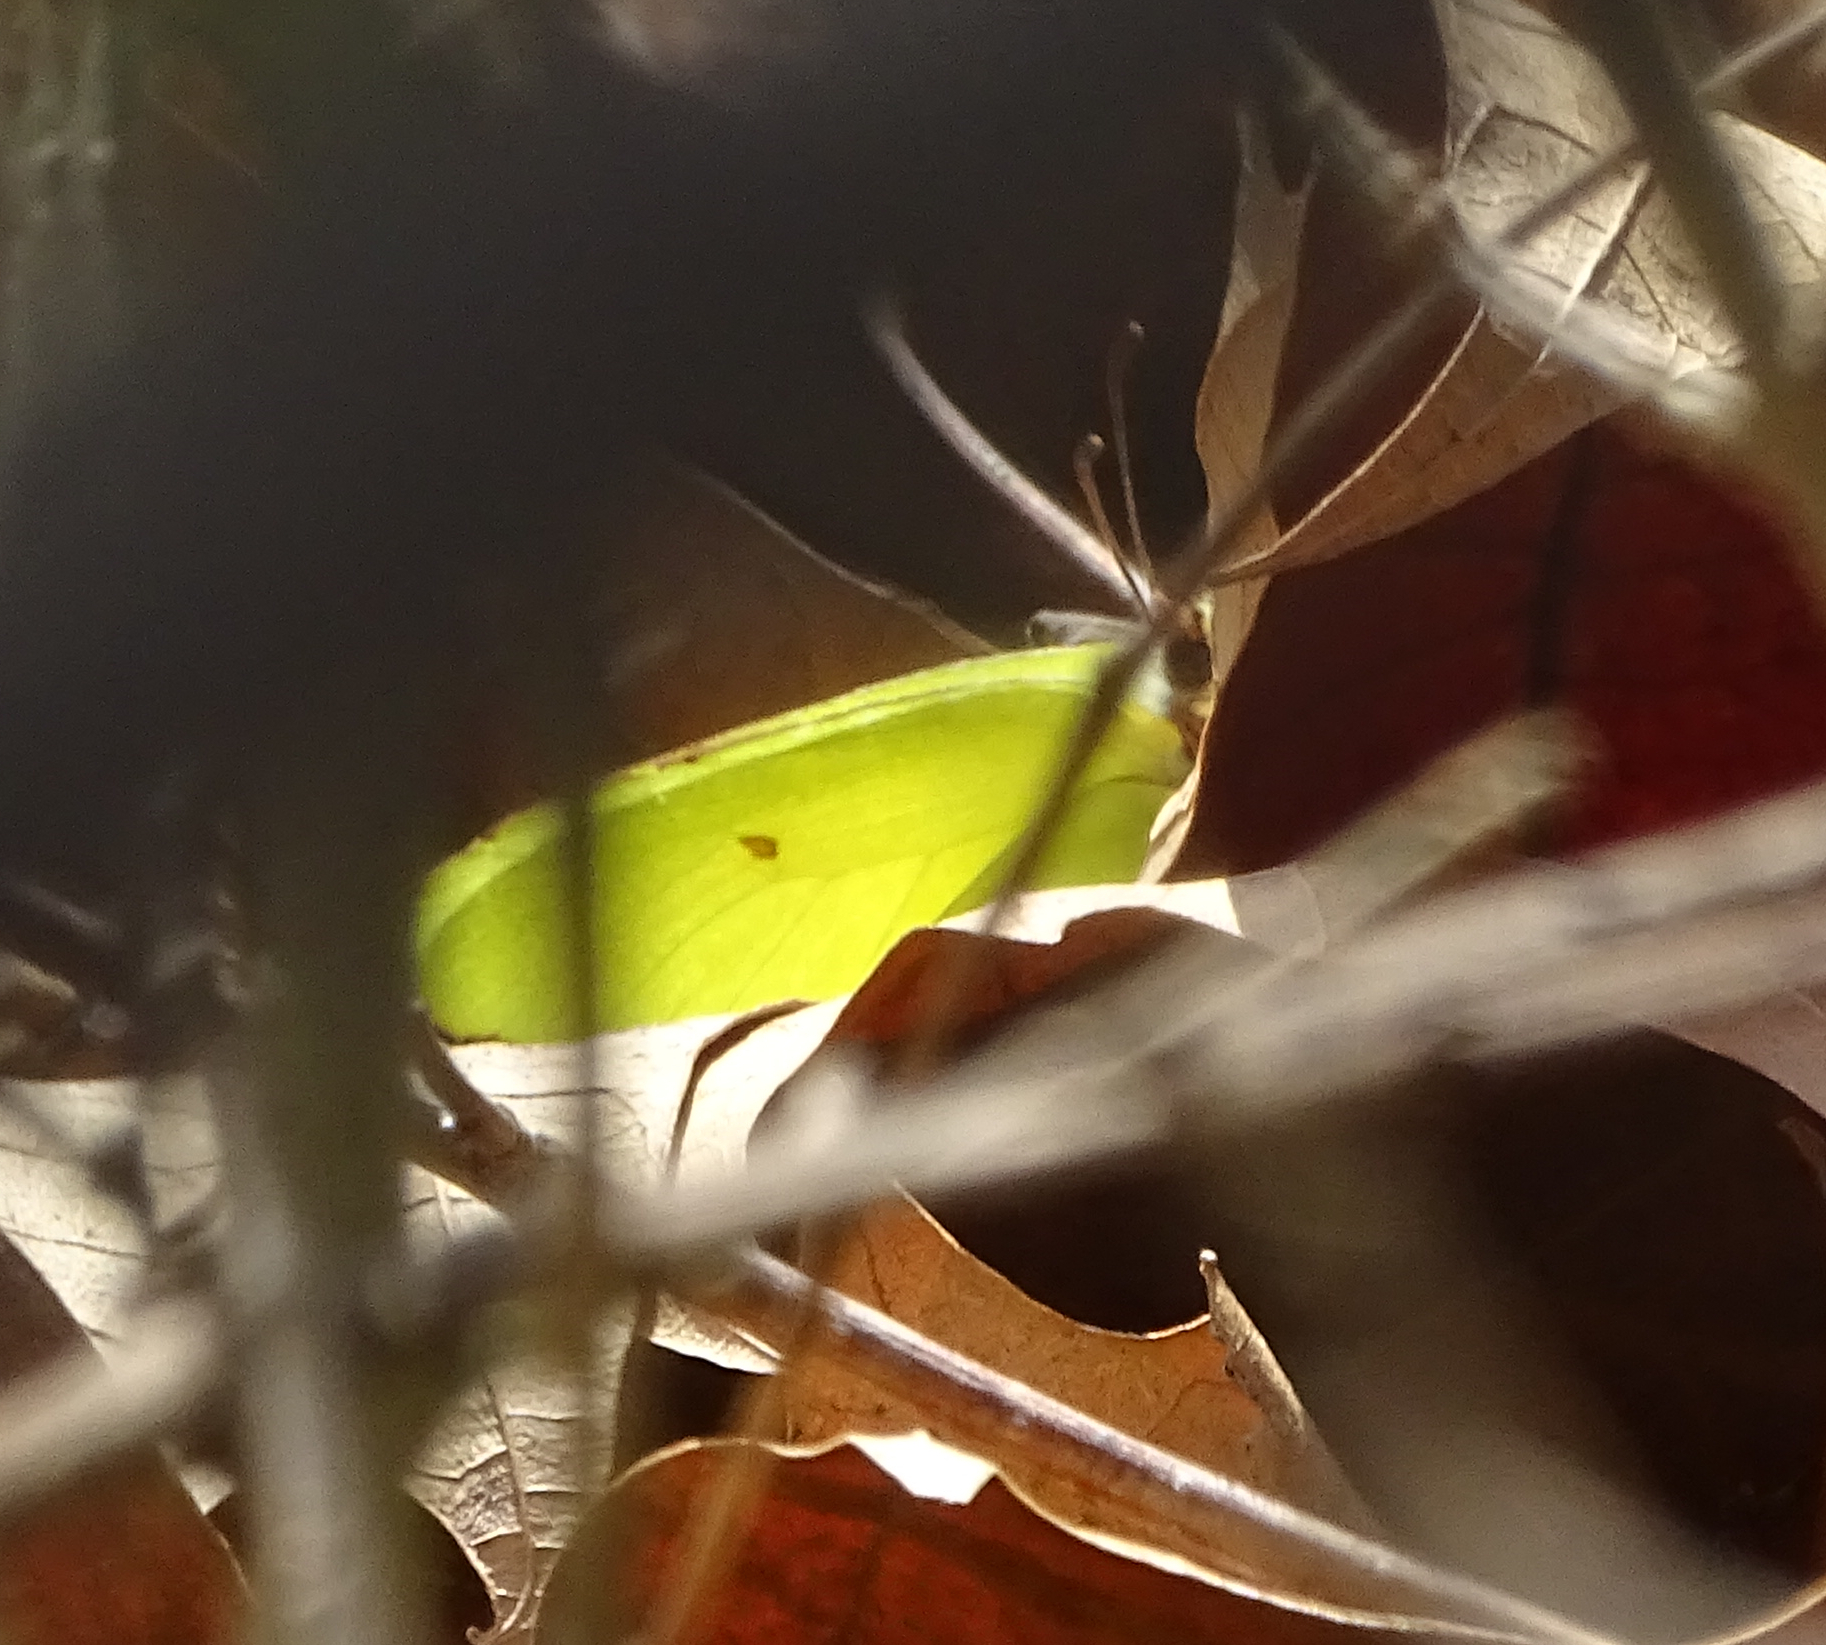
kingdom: Animalia
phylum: Arthropoda
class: Insecta
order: Lepidoptera
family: Pieridae
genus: Gonepteryx
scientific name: Gonepteryx rhamni
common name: Brimstone
